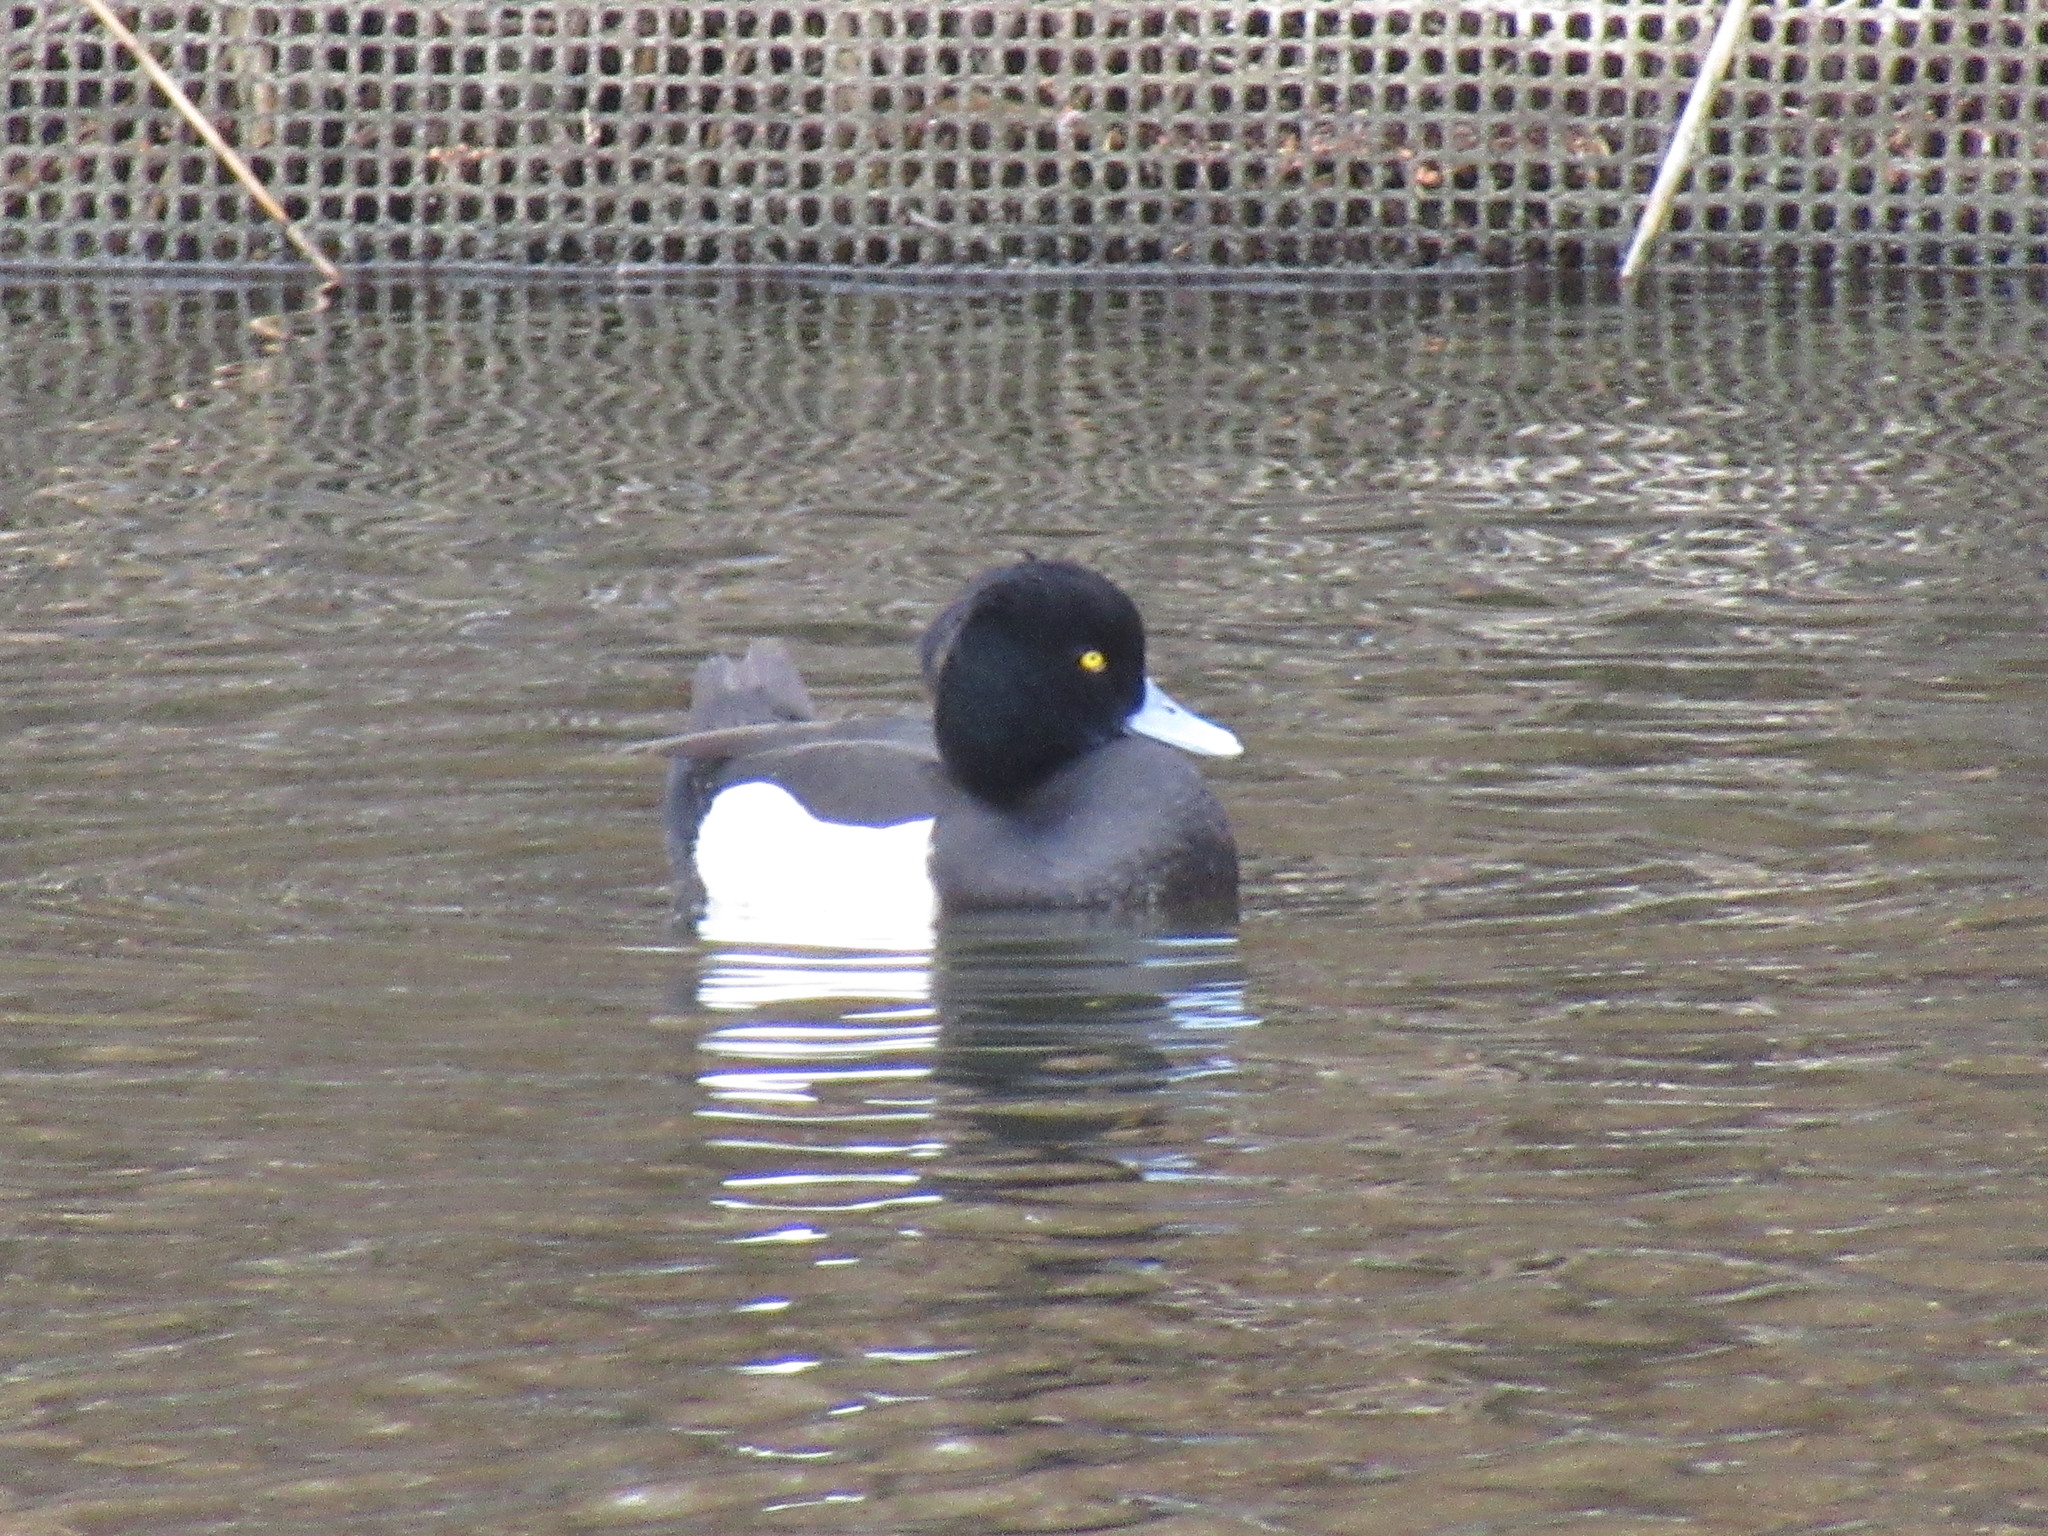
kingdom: Animalia
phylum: Chordata
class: Aves
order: Anseriformes
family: Anatidae
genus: Aythya
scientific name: Aythya fuligula
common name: Tufted duck
